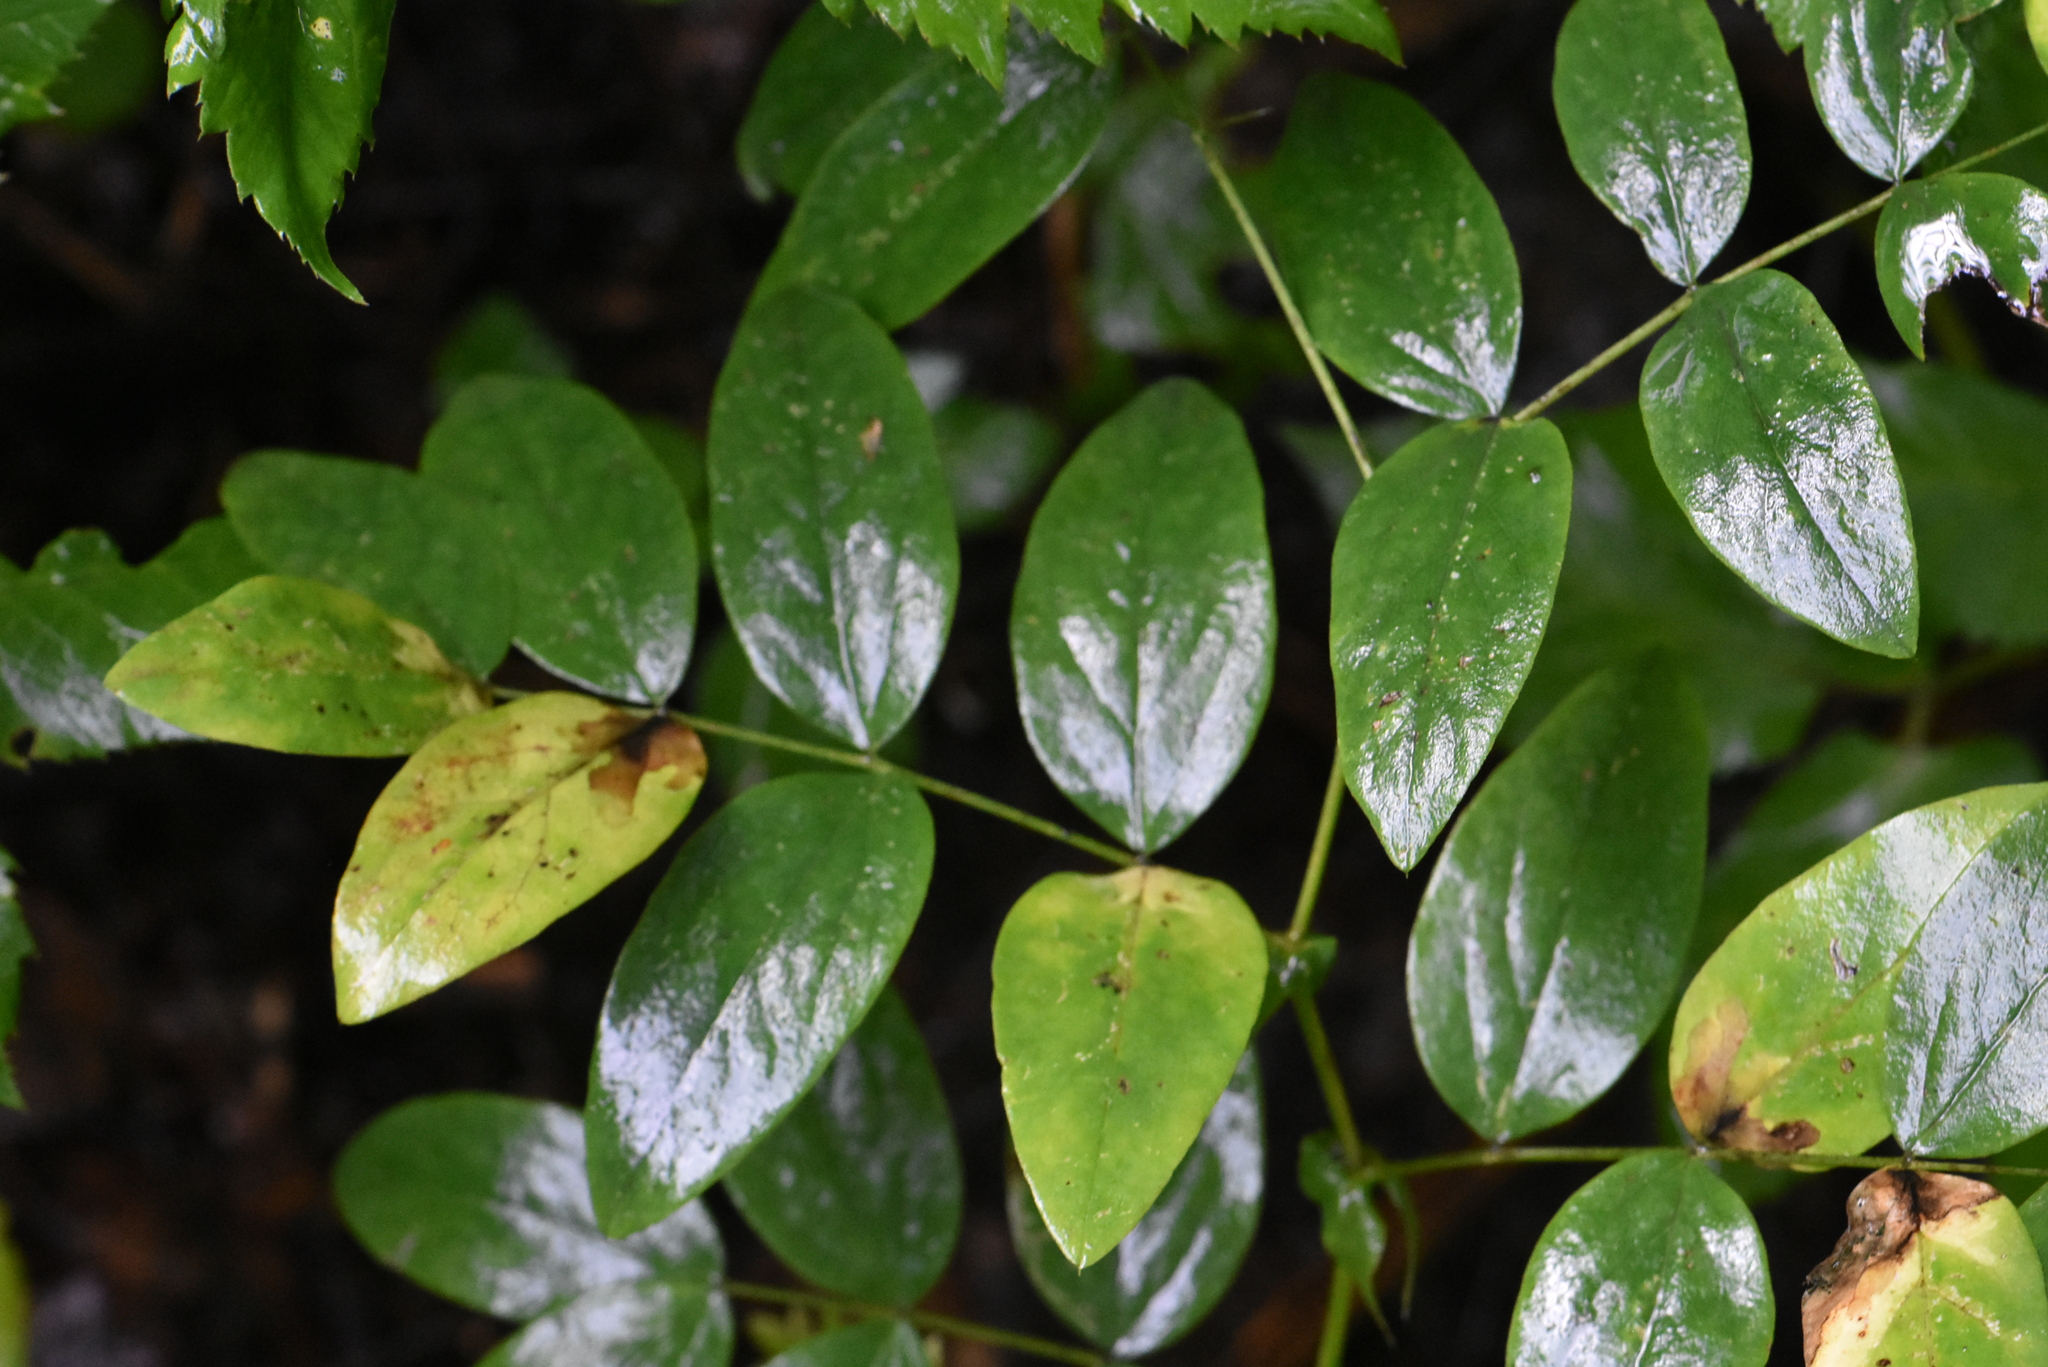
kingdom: Plantae
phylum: Tracheophyta
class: Magnoliopsida
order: Fabales
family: Fabaceae
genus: Lathyrus
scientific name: Lathyrus gmelinii
